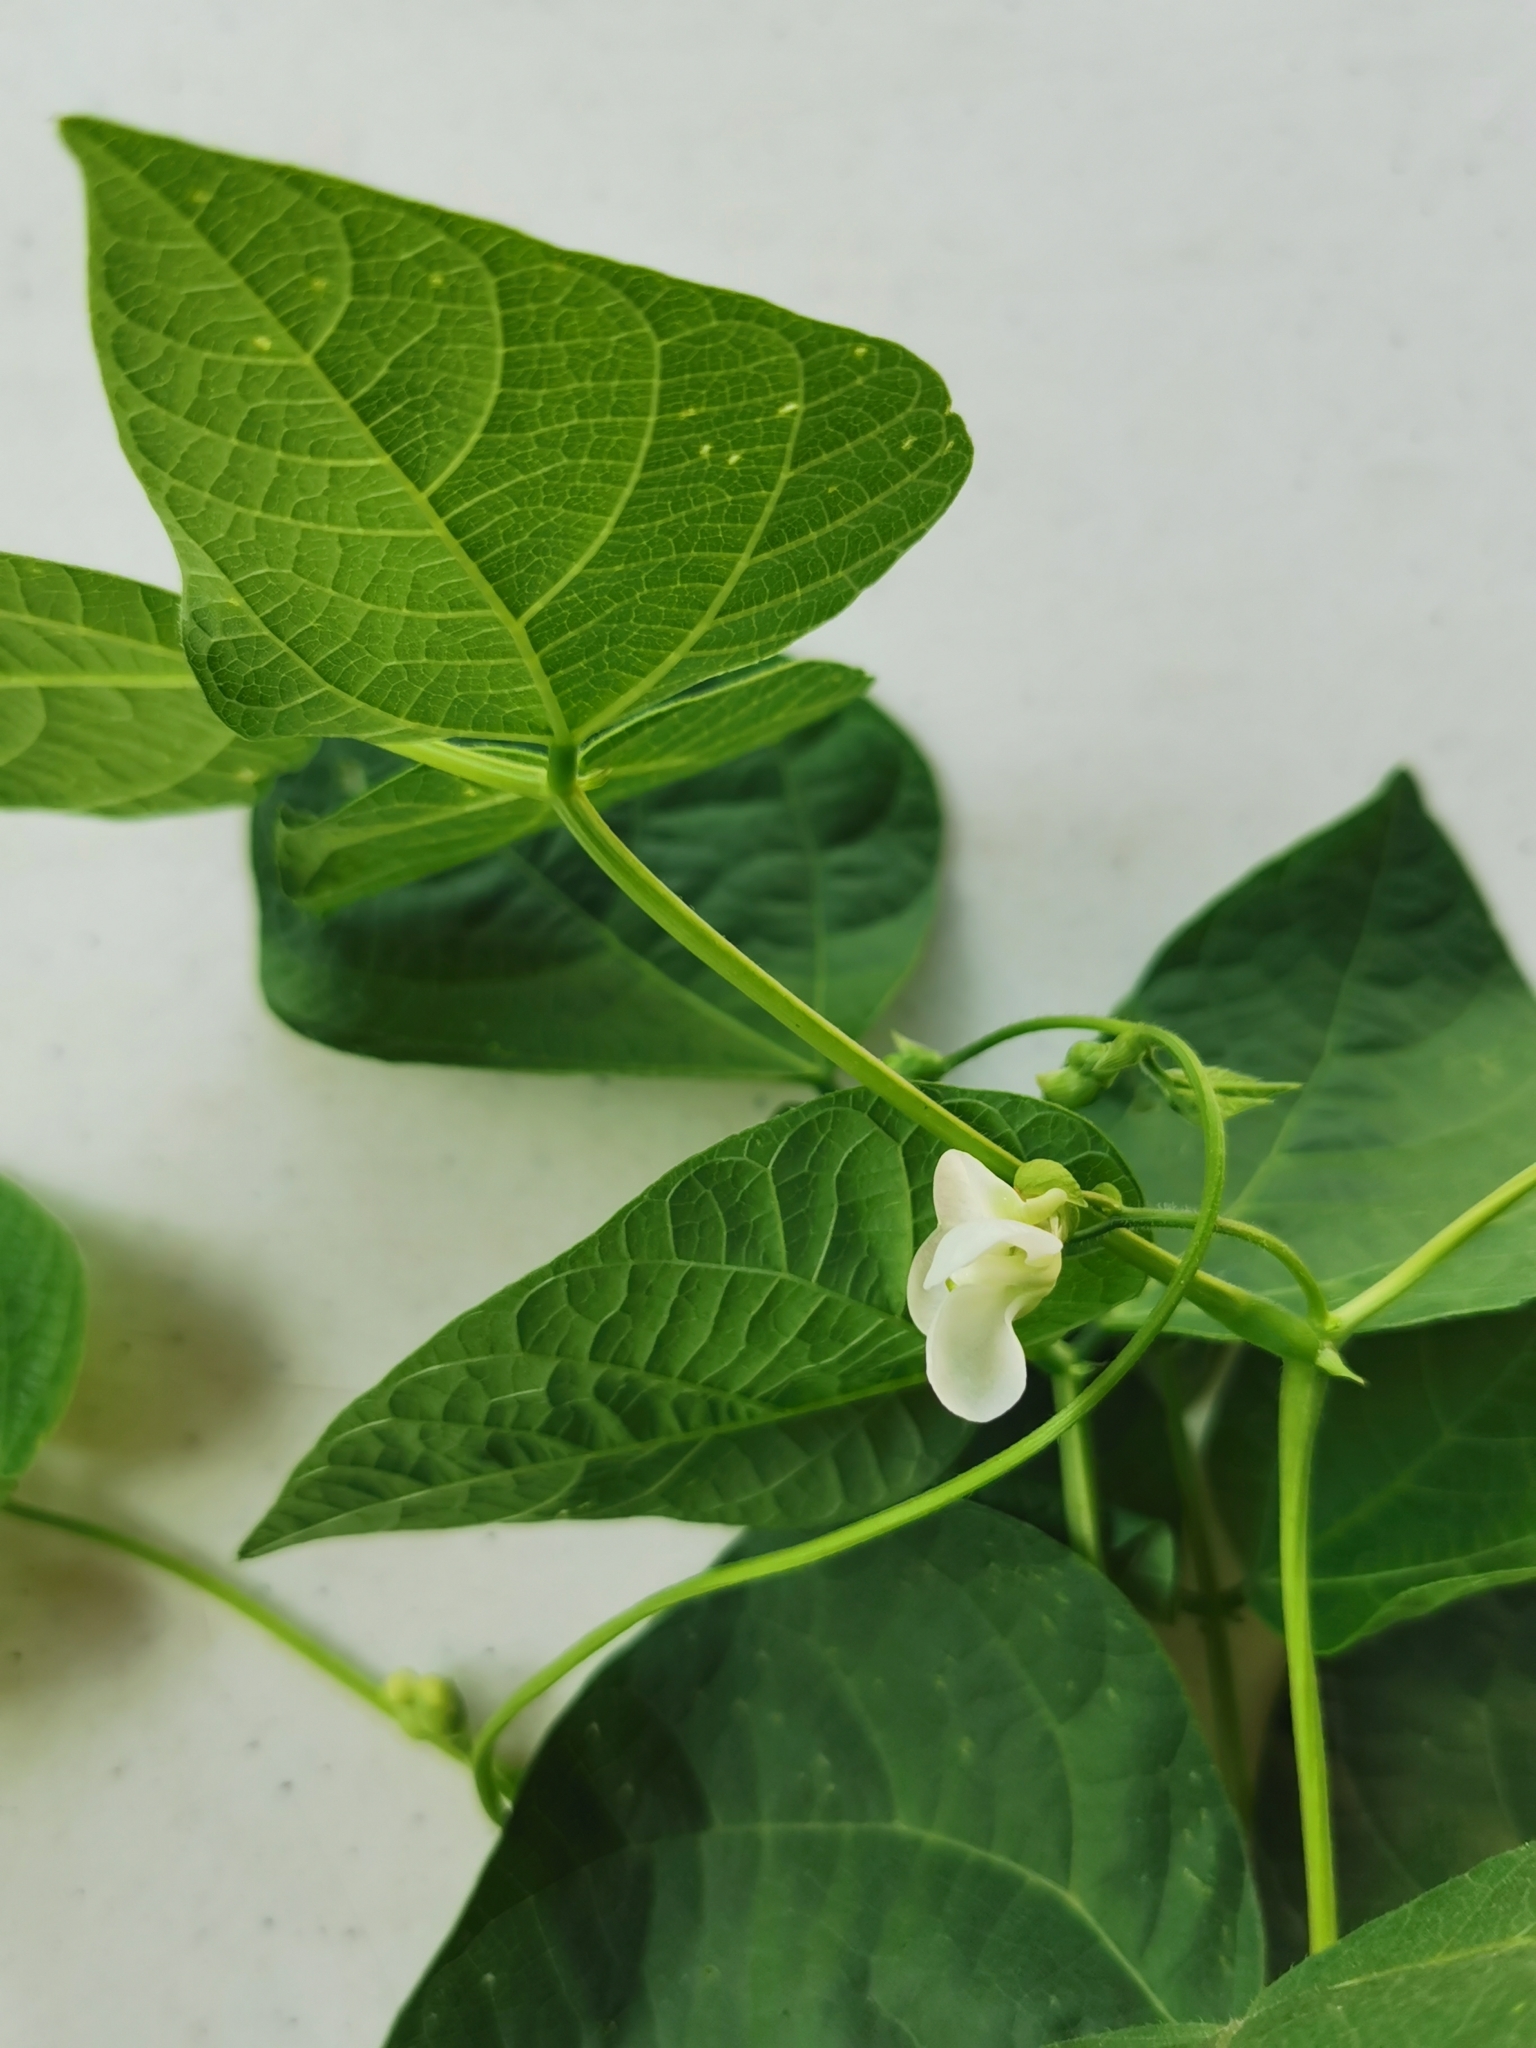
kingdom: Plantae
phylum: Tracheophyta
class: Magnoliopsida
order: Fabales
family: Fabaceae
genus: Phaseolus
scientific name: Phaseolus vulgaris
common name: Bean
